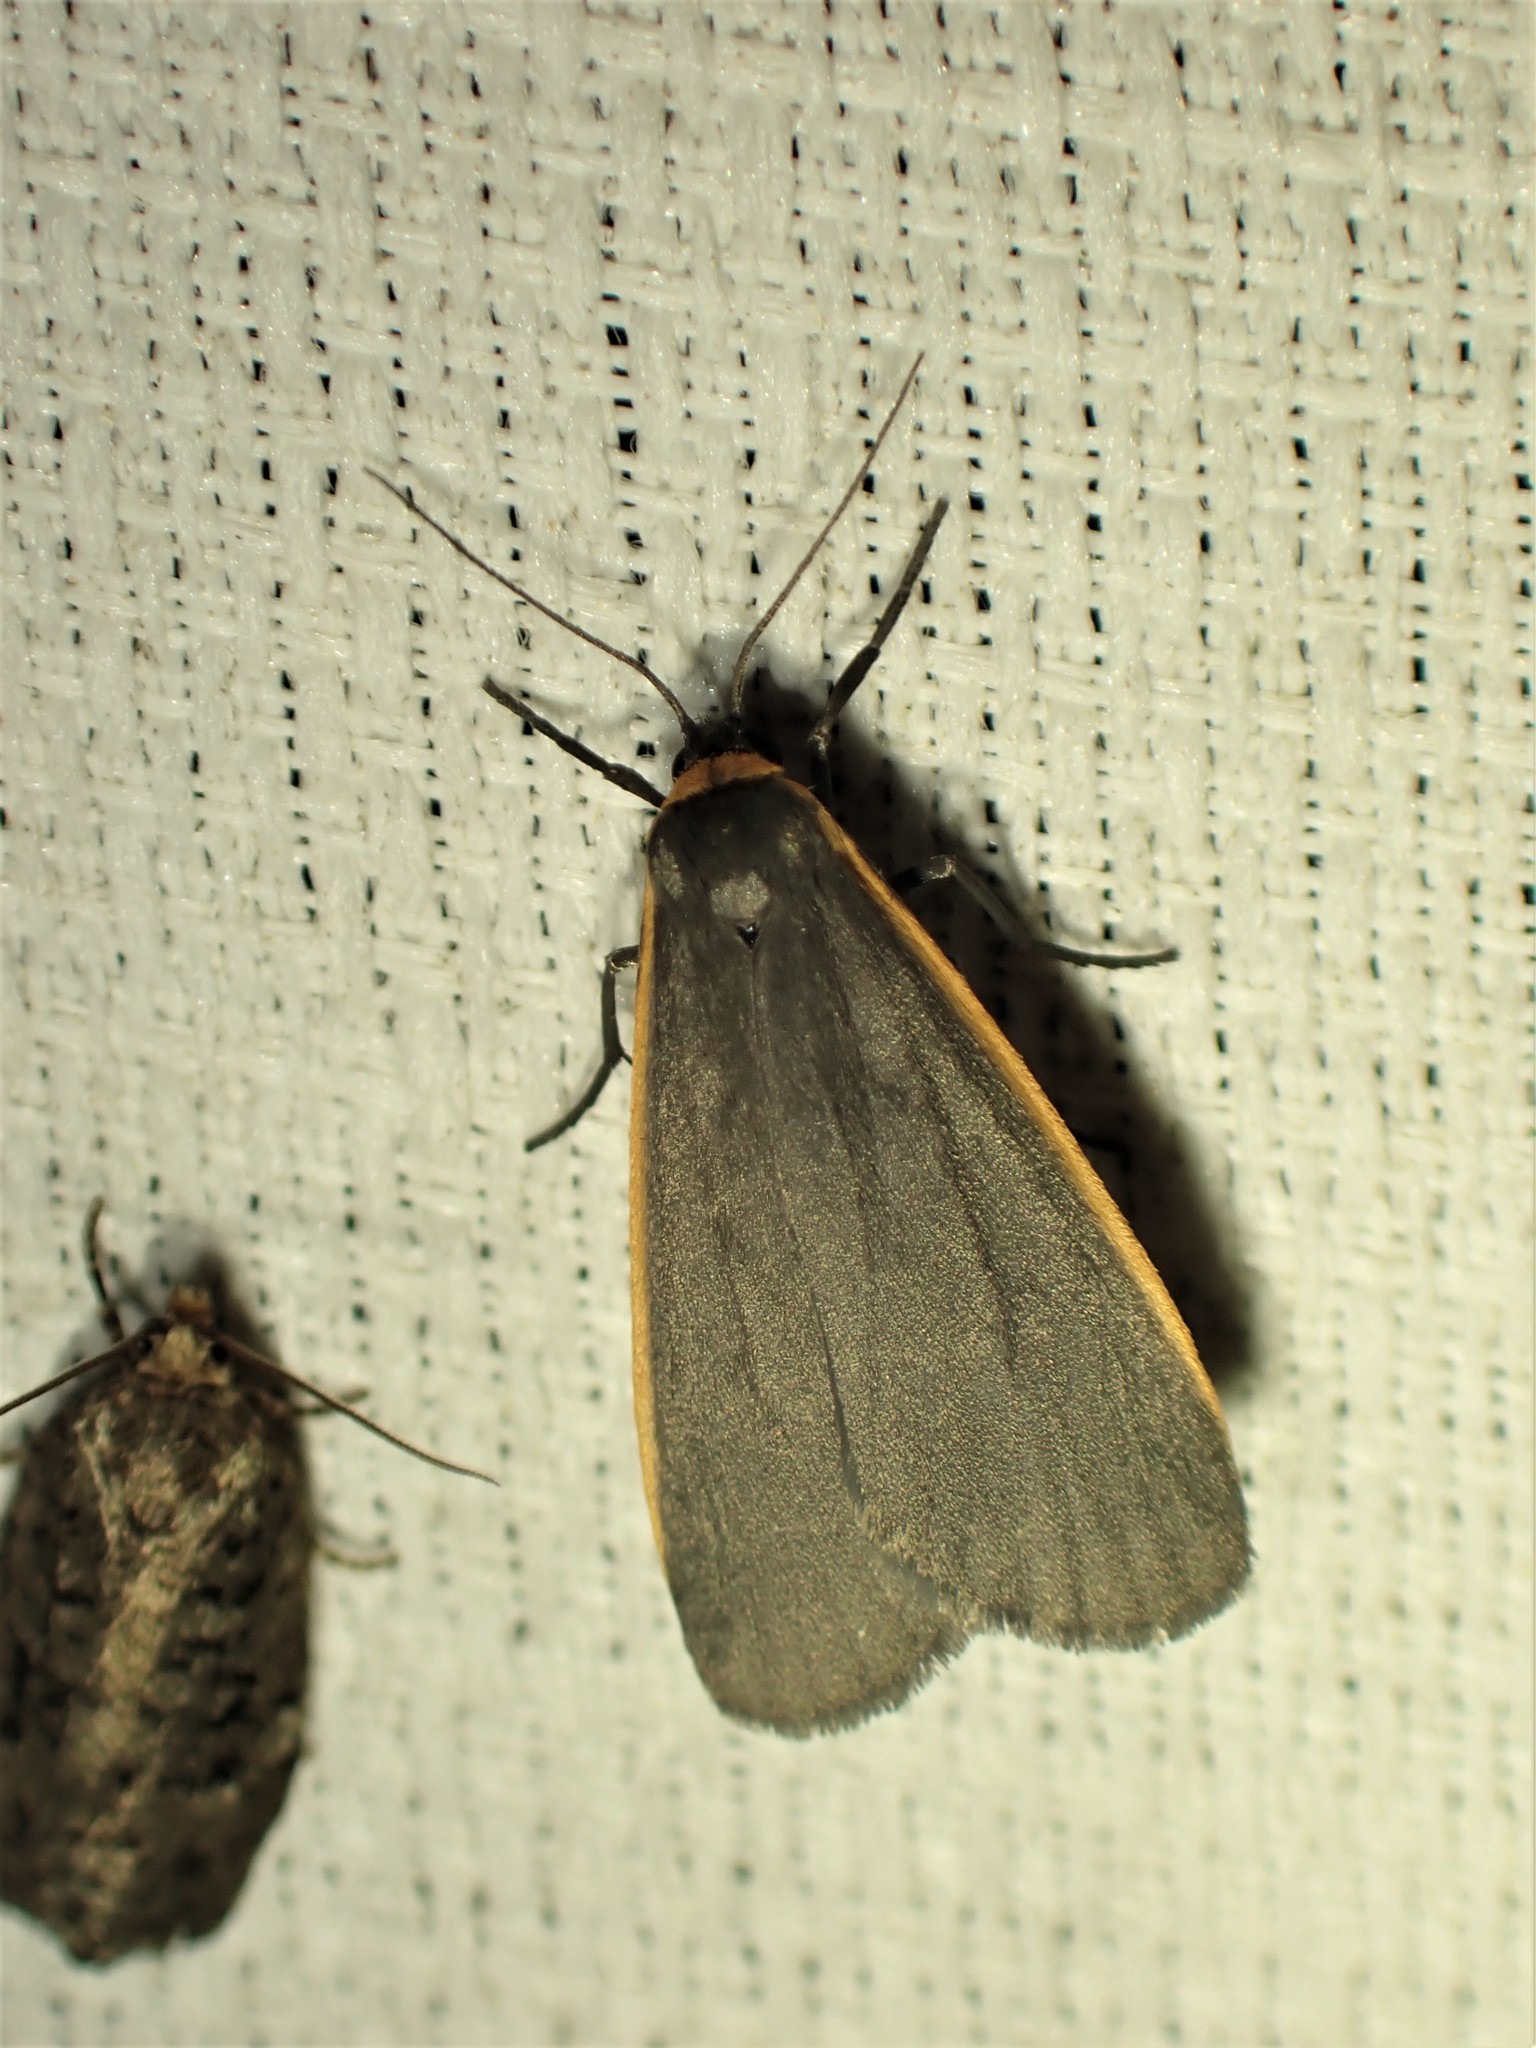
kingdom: Animalia
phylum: Arthropoda
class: Insecta
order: Lepidoptera
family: Erebidae
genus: Manulea
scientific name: Manulea bicolor
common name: Bicolored moth
